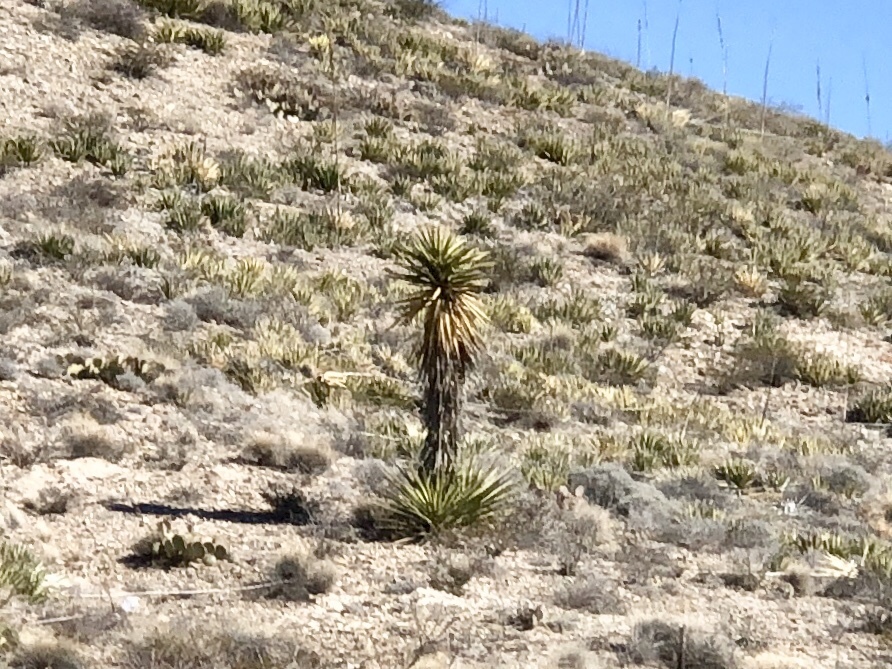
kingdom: Plantae
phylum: Tracheophyta
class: Liliopsida
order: Asparagales
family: Asparagaceae
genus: Yucca
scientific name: Yucca treculiana
